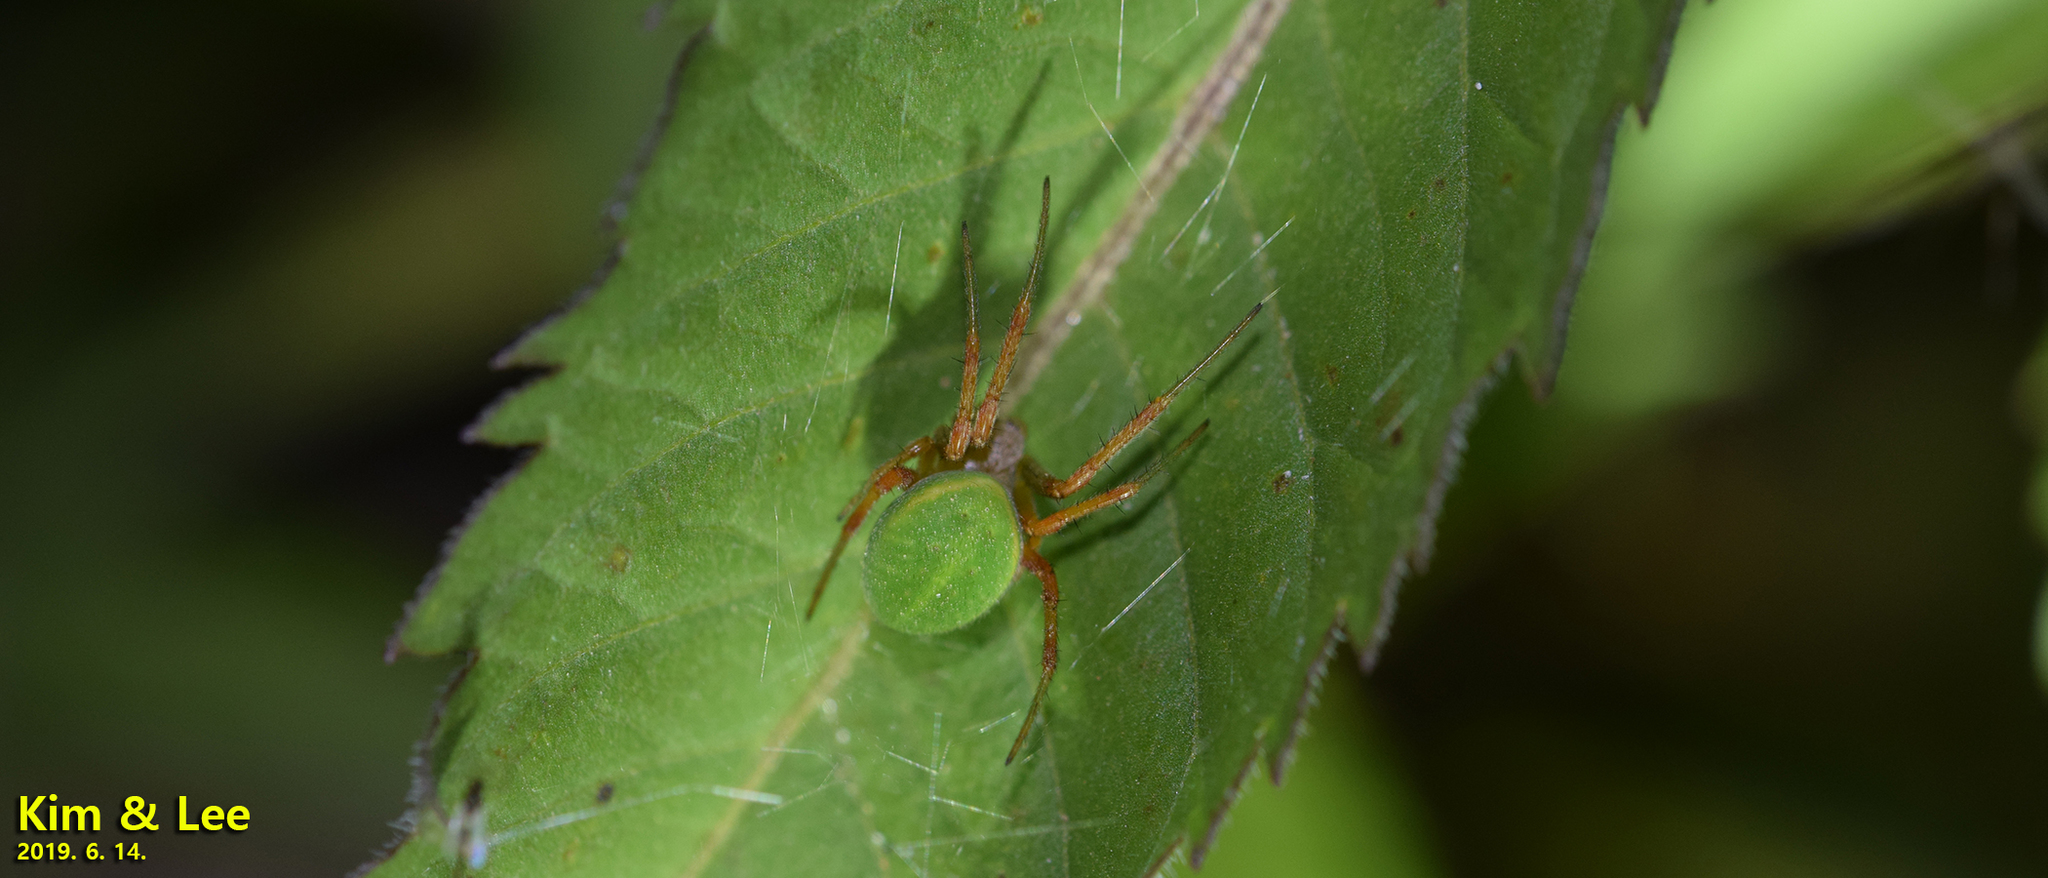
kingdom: Animalia
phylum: Arthropoda
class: Arachnida
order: Araneae
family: Araneidae
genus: Neoscona
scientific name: Neoscona scylloides
